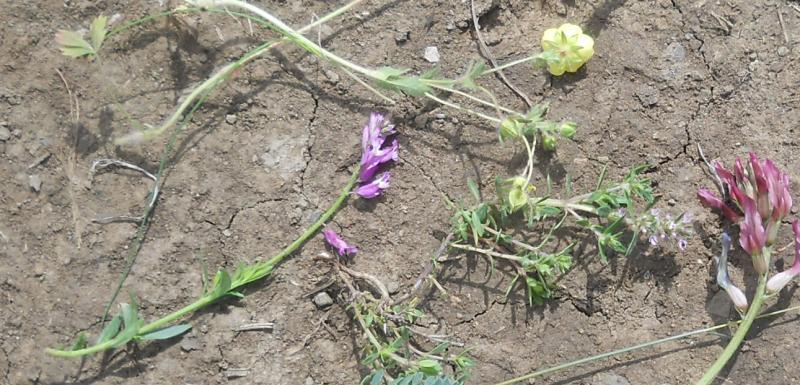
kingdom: Plantae
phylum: Tracheophyta
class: Magnoliopsida
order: Lamiales
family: Lamiaceae
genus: Thymus
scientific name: Thymus pulegioides
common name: Large thyme
